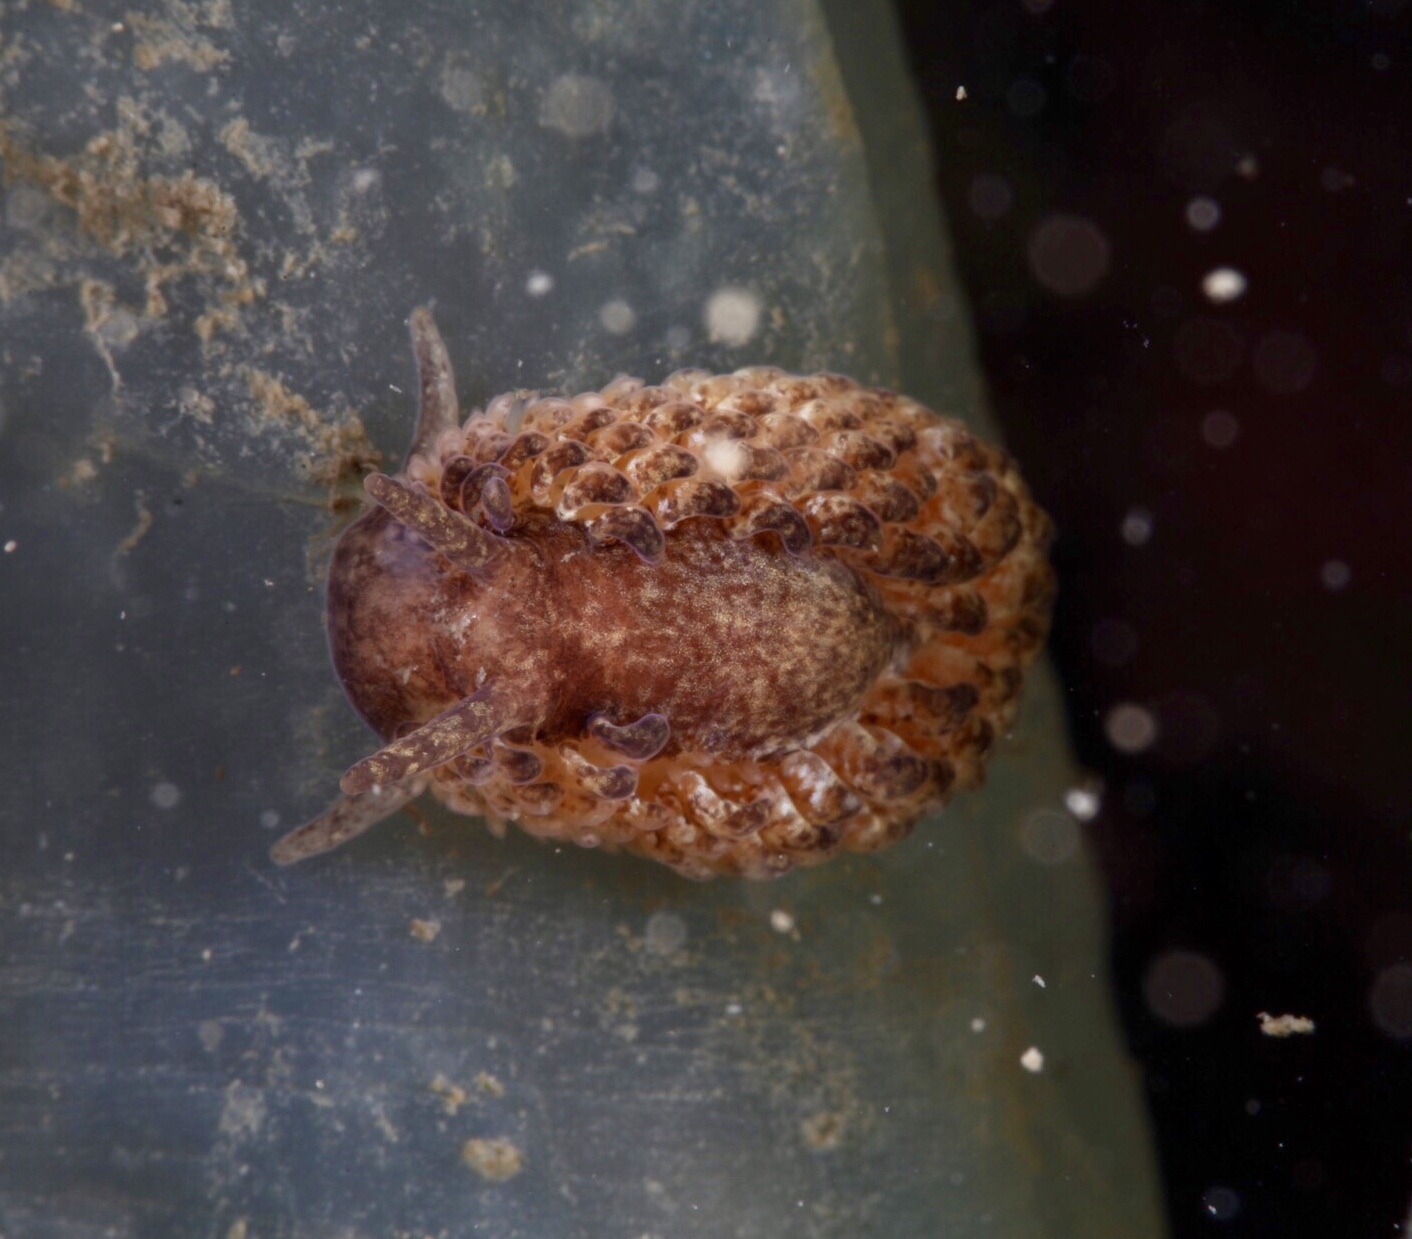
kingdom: Animalia
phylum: Mollusca
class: Gastropoda
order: Nudibranchia
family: Aeolidiidae
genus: Aeolidia
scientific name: Aeolidia papillosa
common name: Common grey sea slug
